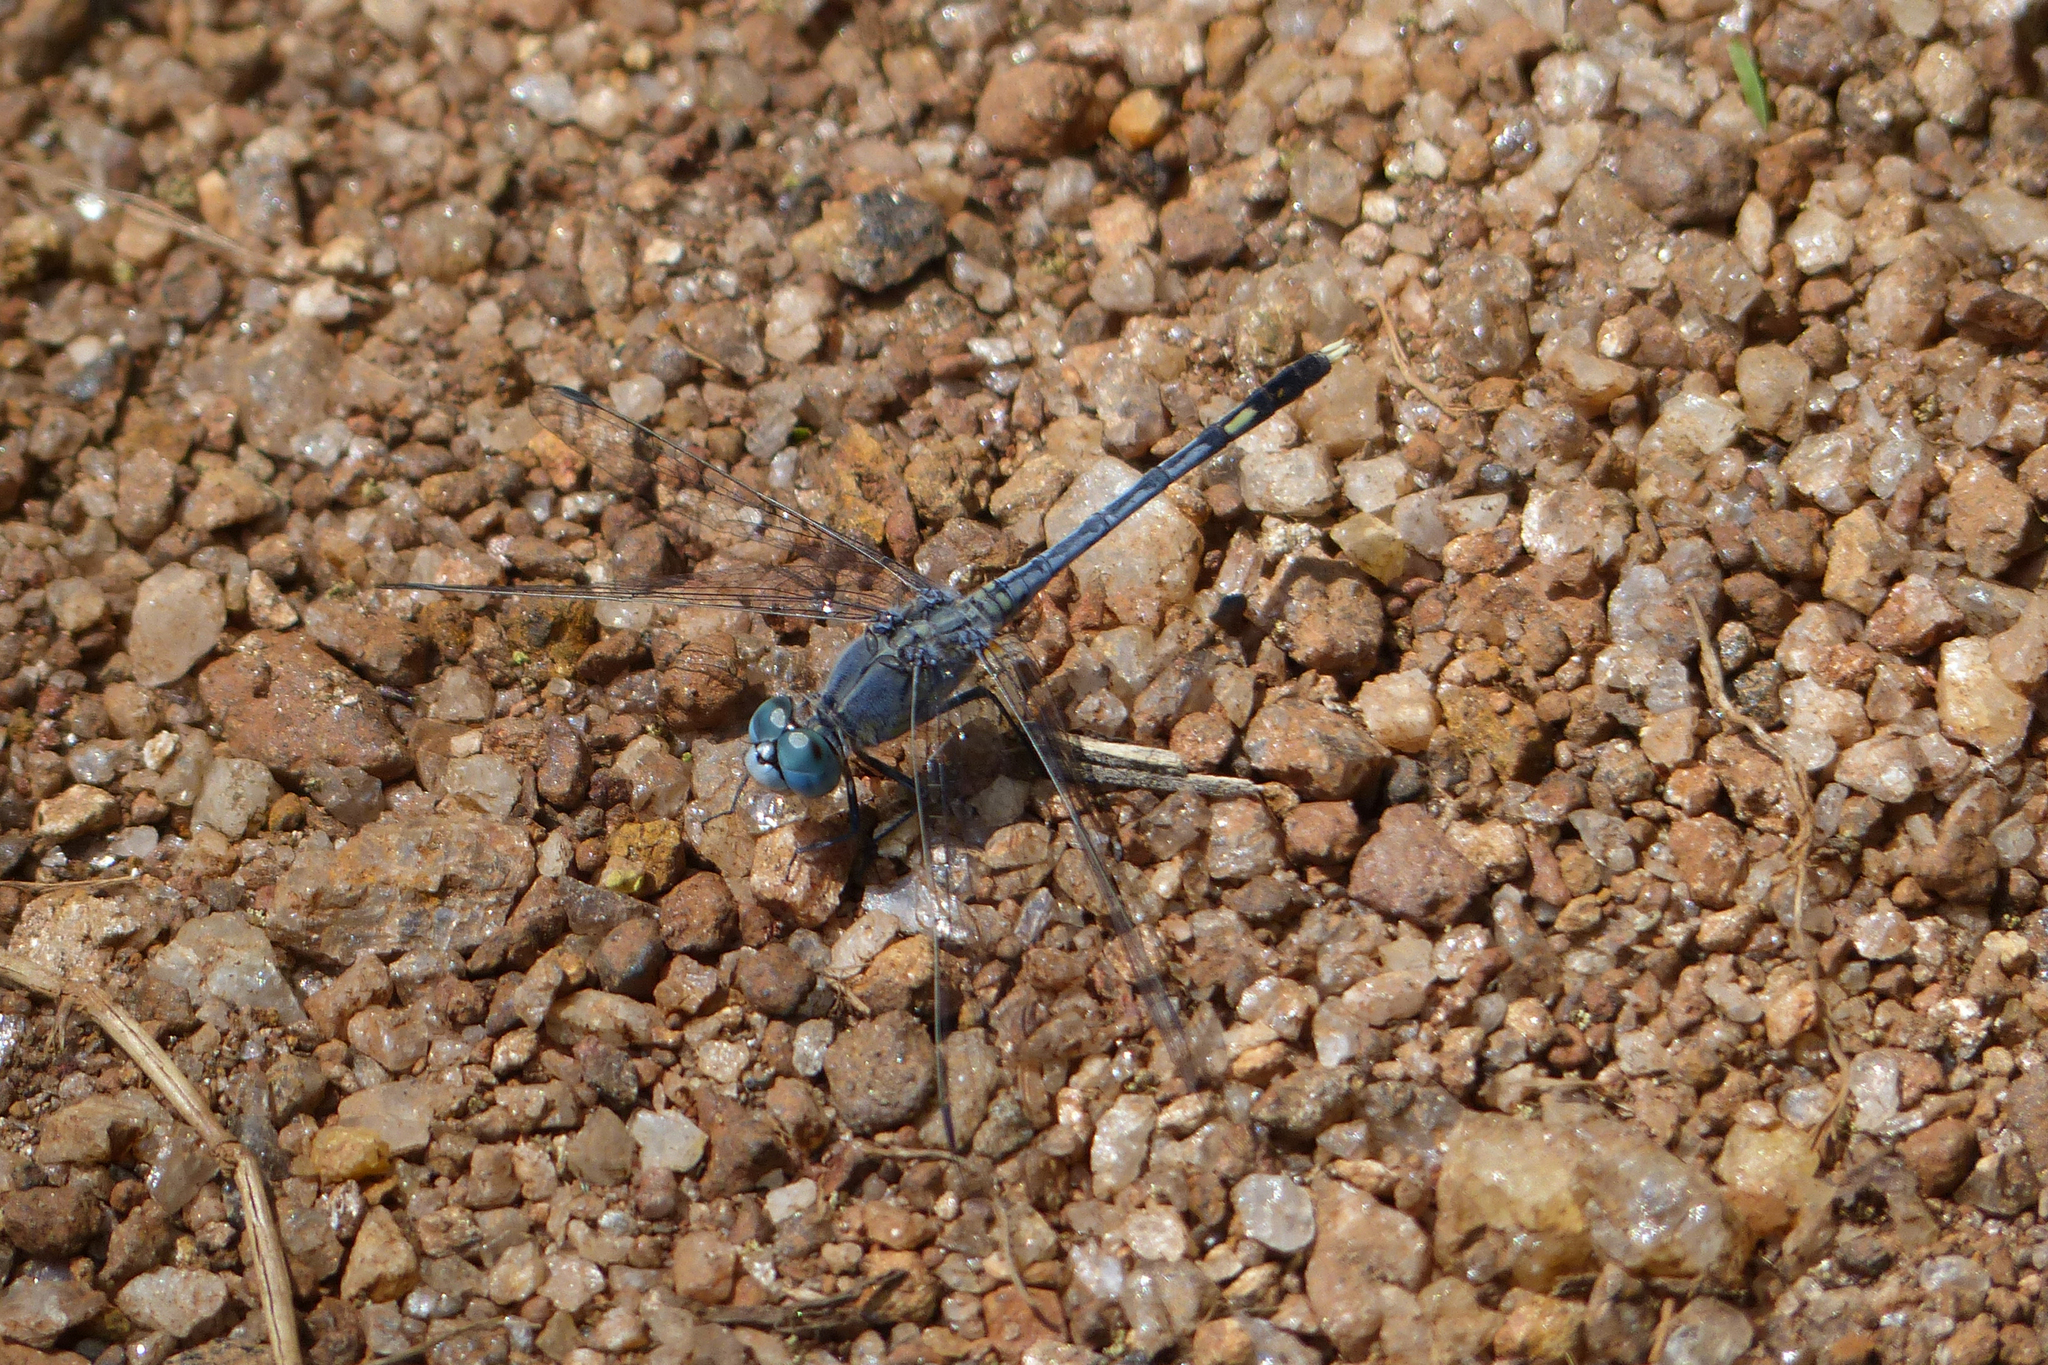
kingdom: Animalia
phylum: Arthropoda
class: Insecta
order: Odonata
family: Libellulidae
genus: Diplacodes
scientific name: Diplacodes trivialis
